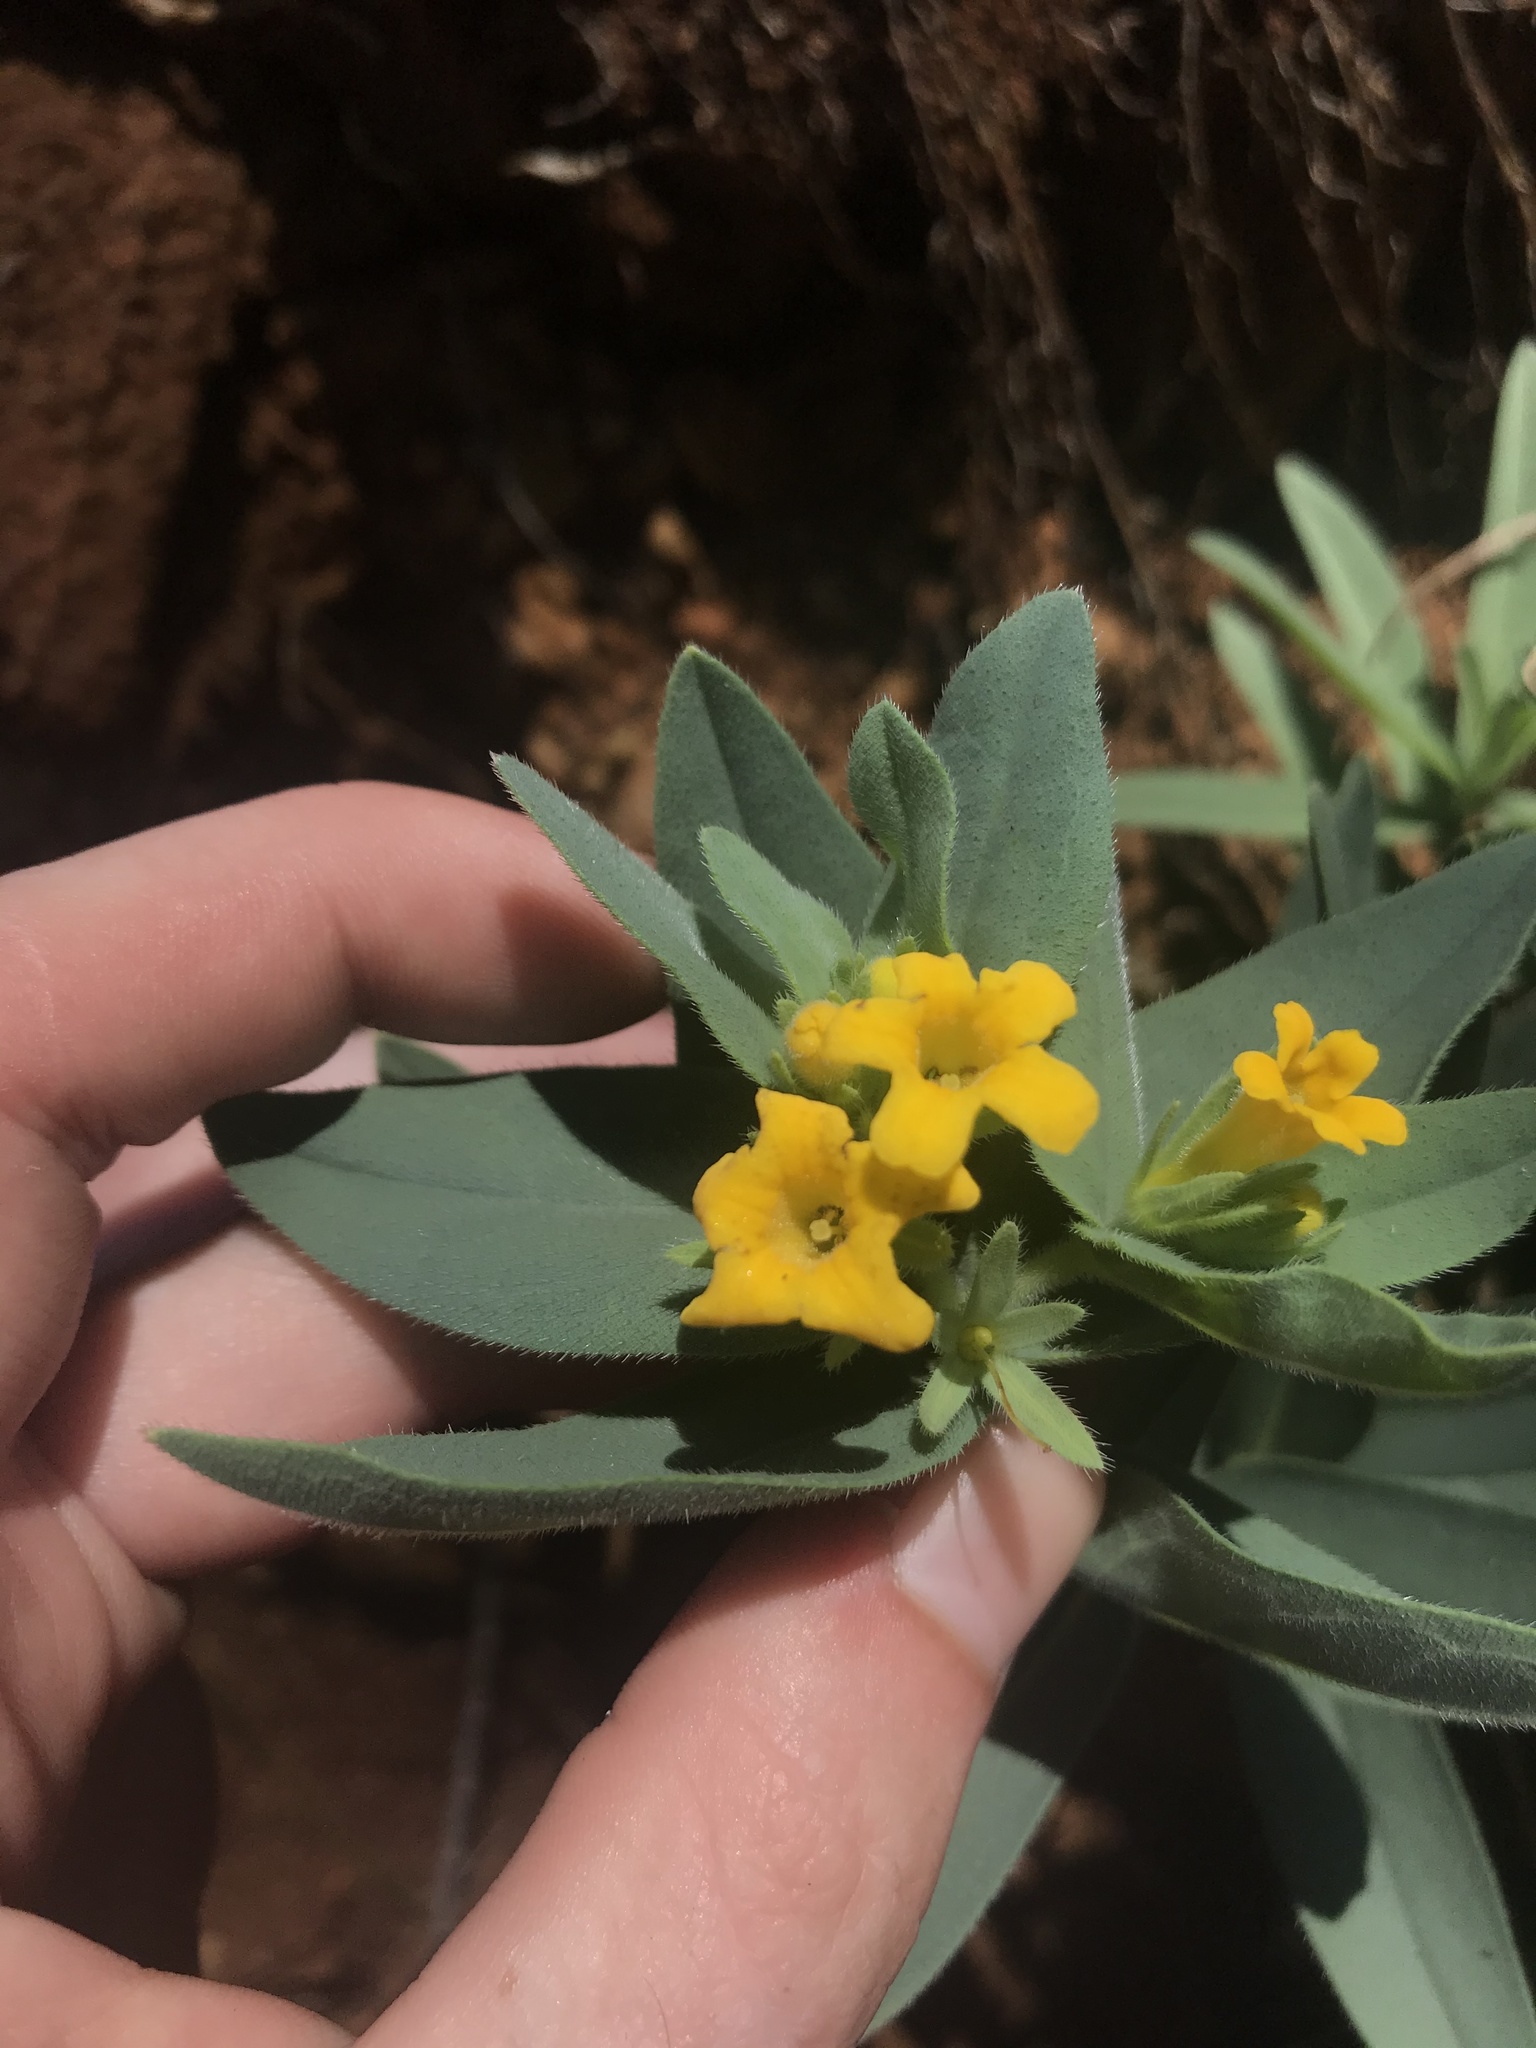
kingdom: Plantae
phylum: Tracheophyta
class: Magnoliopsida
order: Boraginales
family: Boraginaceae
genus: Lithospermum
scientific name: Lithospermum californicum
